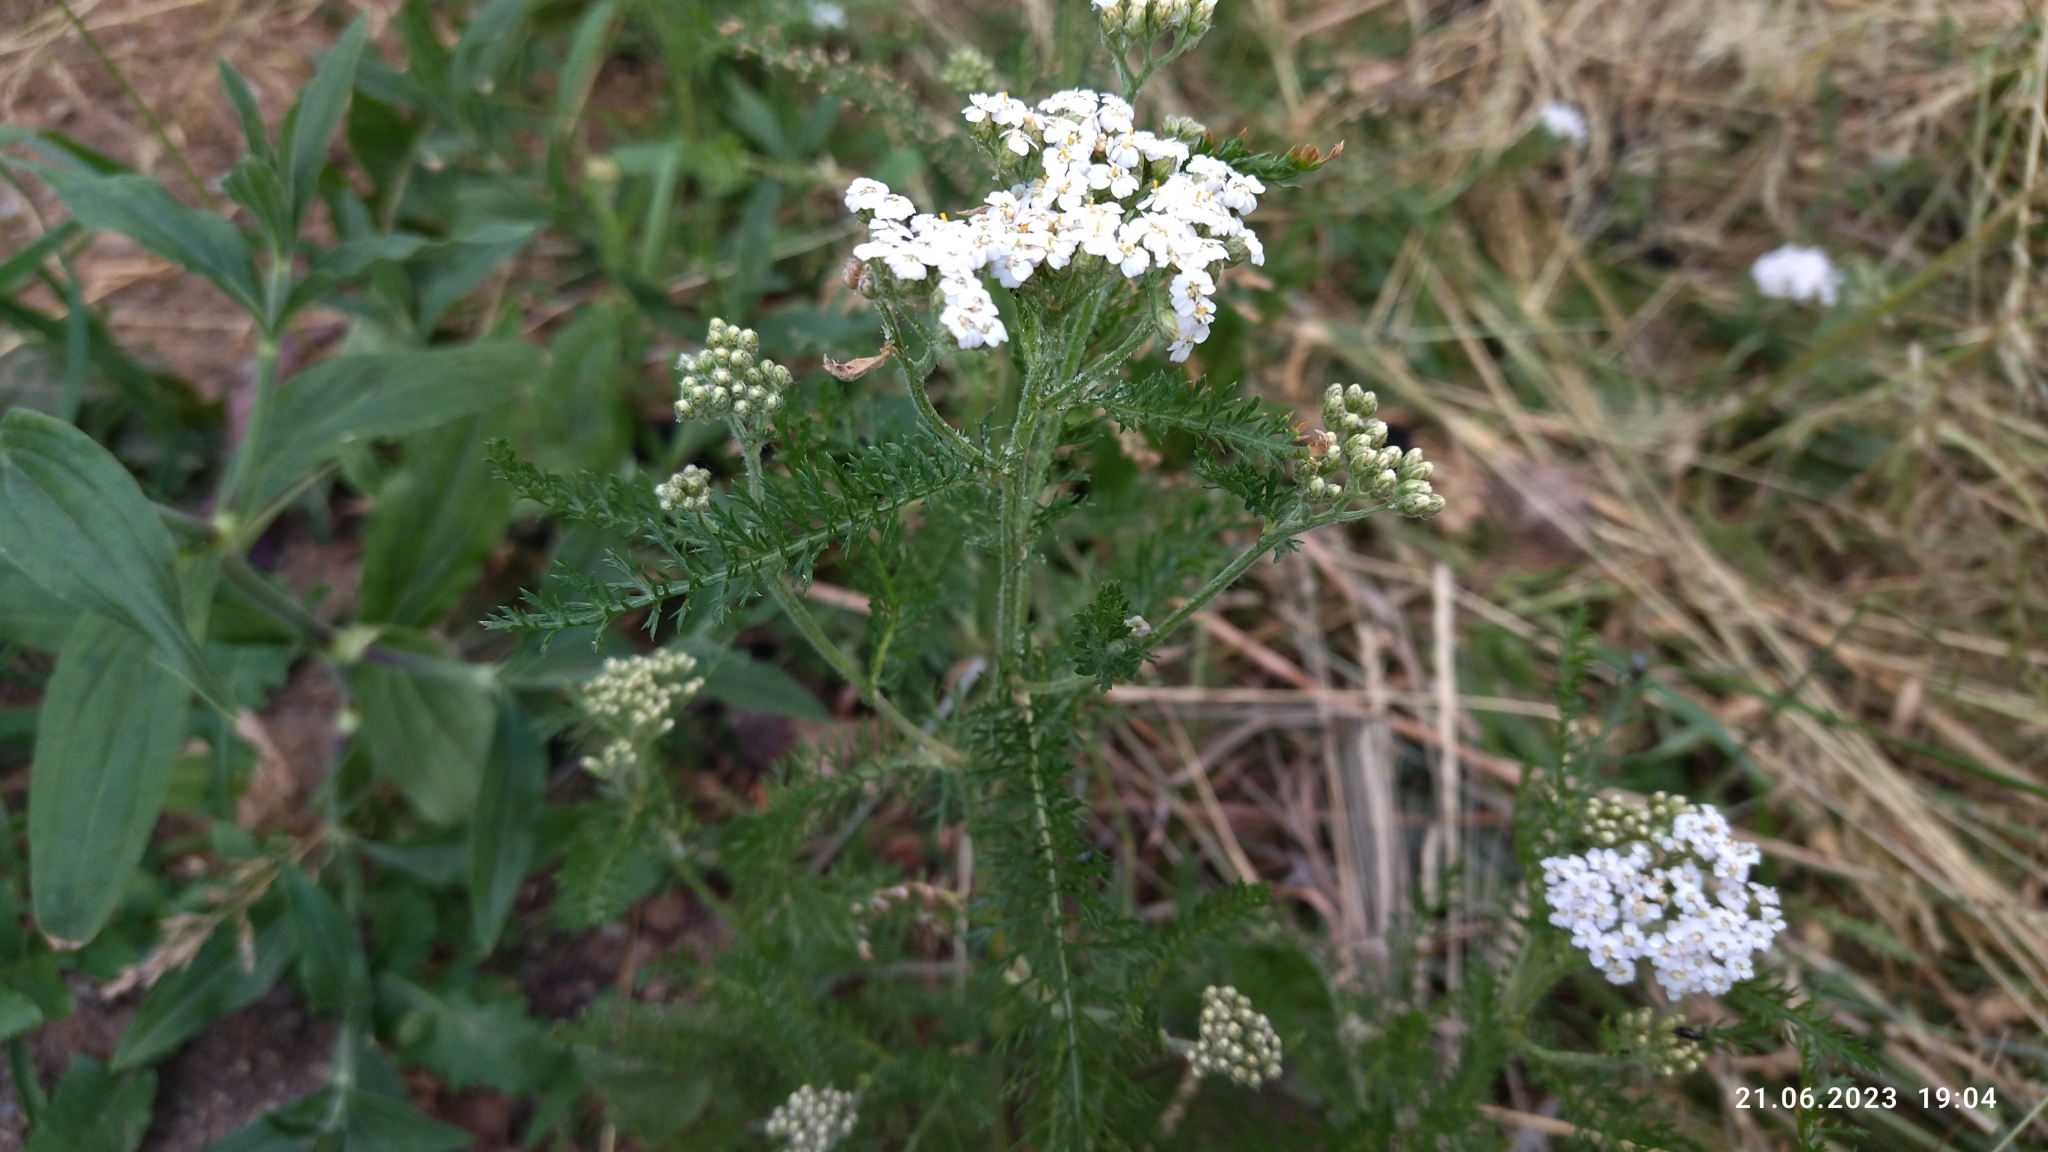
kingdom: Plantae
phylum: Tracheophyta
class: Magnoliopsida
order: Asterales
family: Asteraceae
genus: Achillea
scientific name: Achillea millefolium
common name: Yarrow
